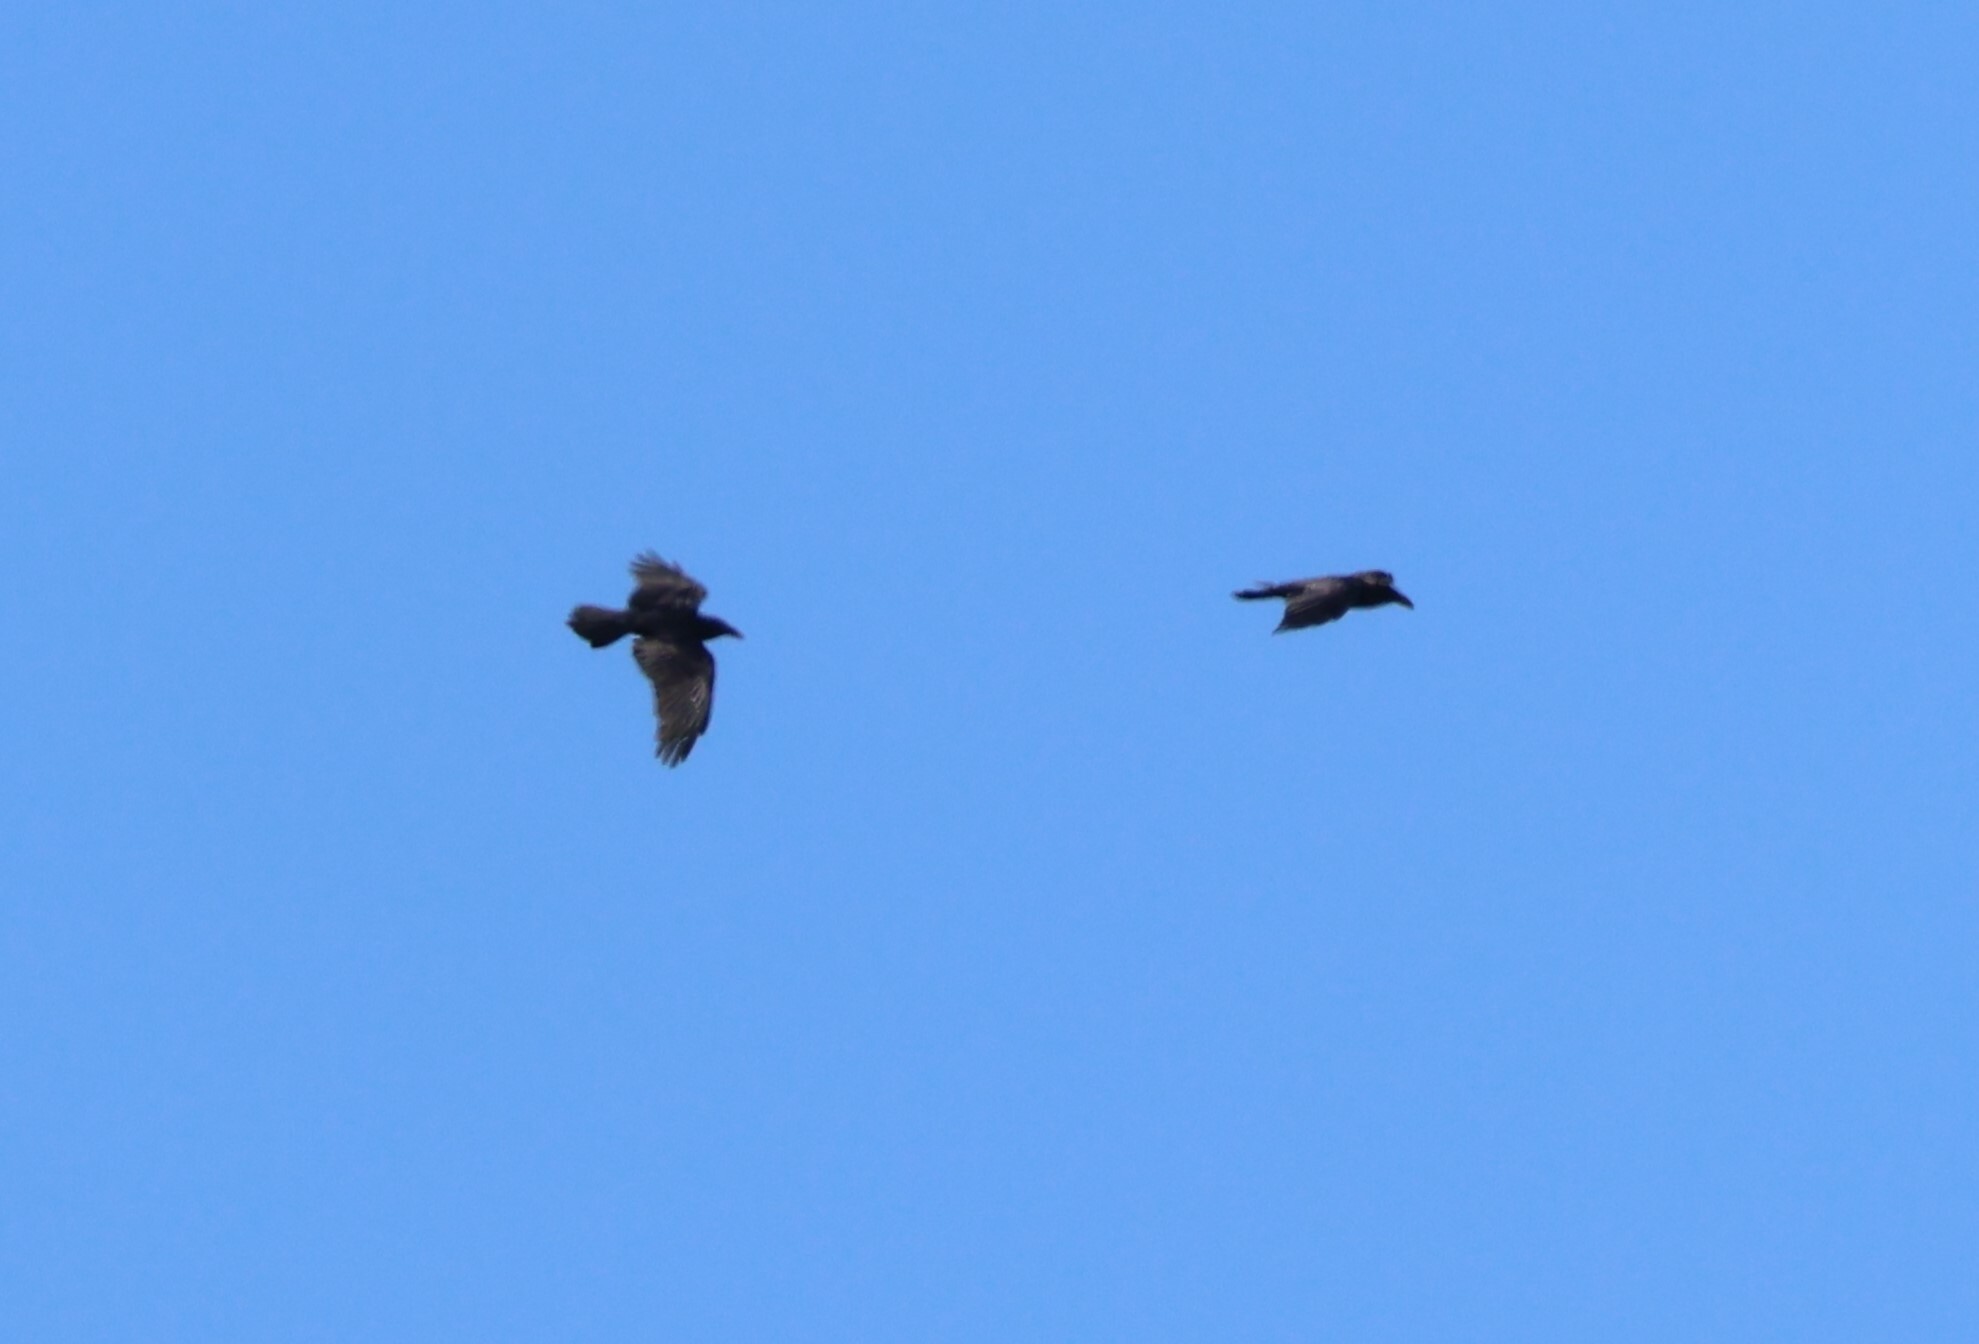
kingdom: Animalia
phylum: Chordata
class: Aves
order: Passeriformes
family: Corvidae
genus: Corvus
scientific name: Corvus corax
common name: Common raven
